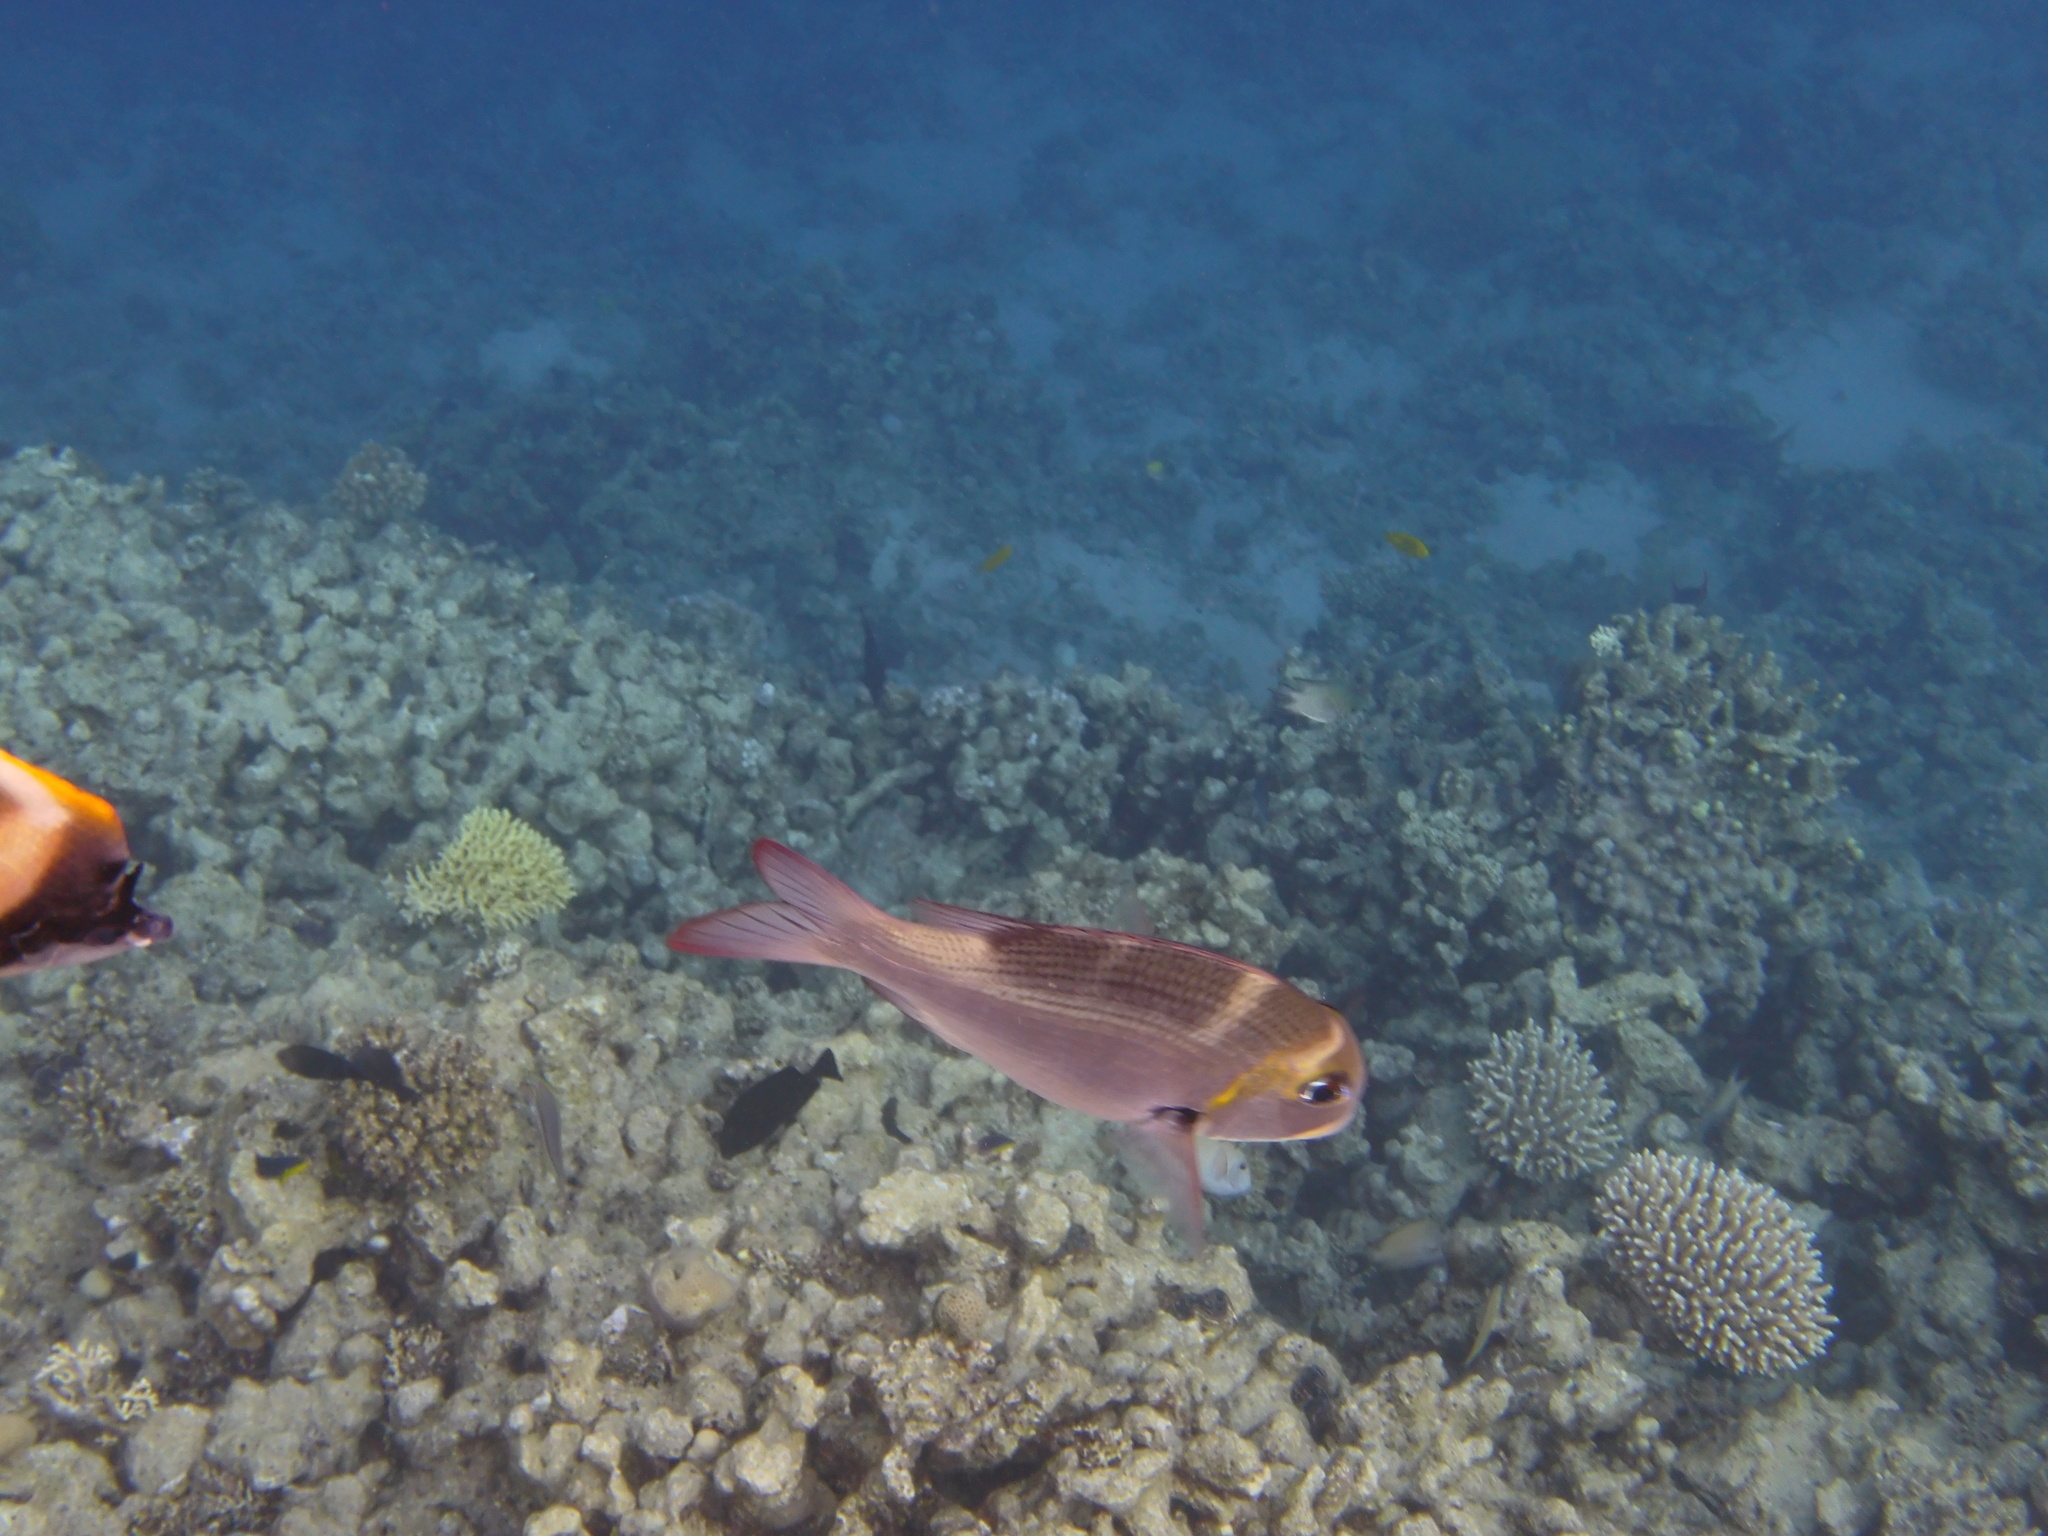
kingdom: Animalia
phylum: Chordata
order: Perciformes
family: Lethrinidae
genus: Monotaxis
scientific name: Monotaxis grandoculis
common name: Bigeye emperor
